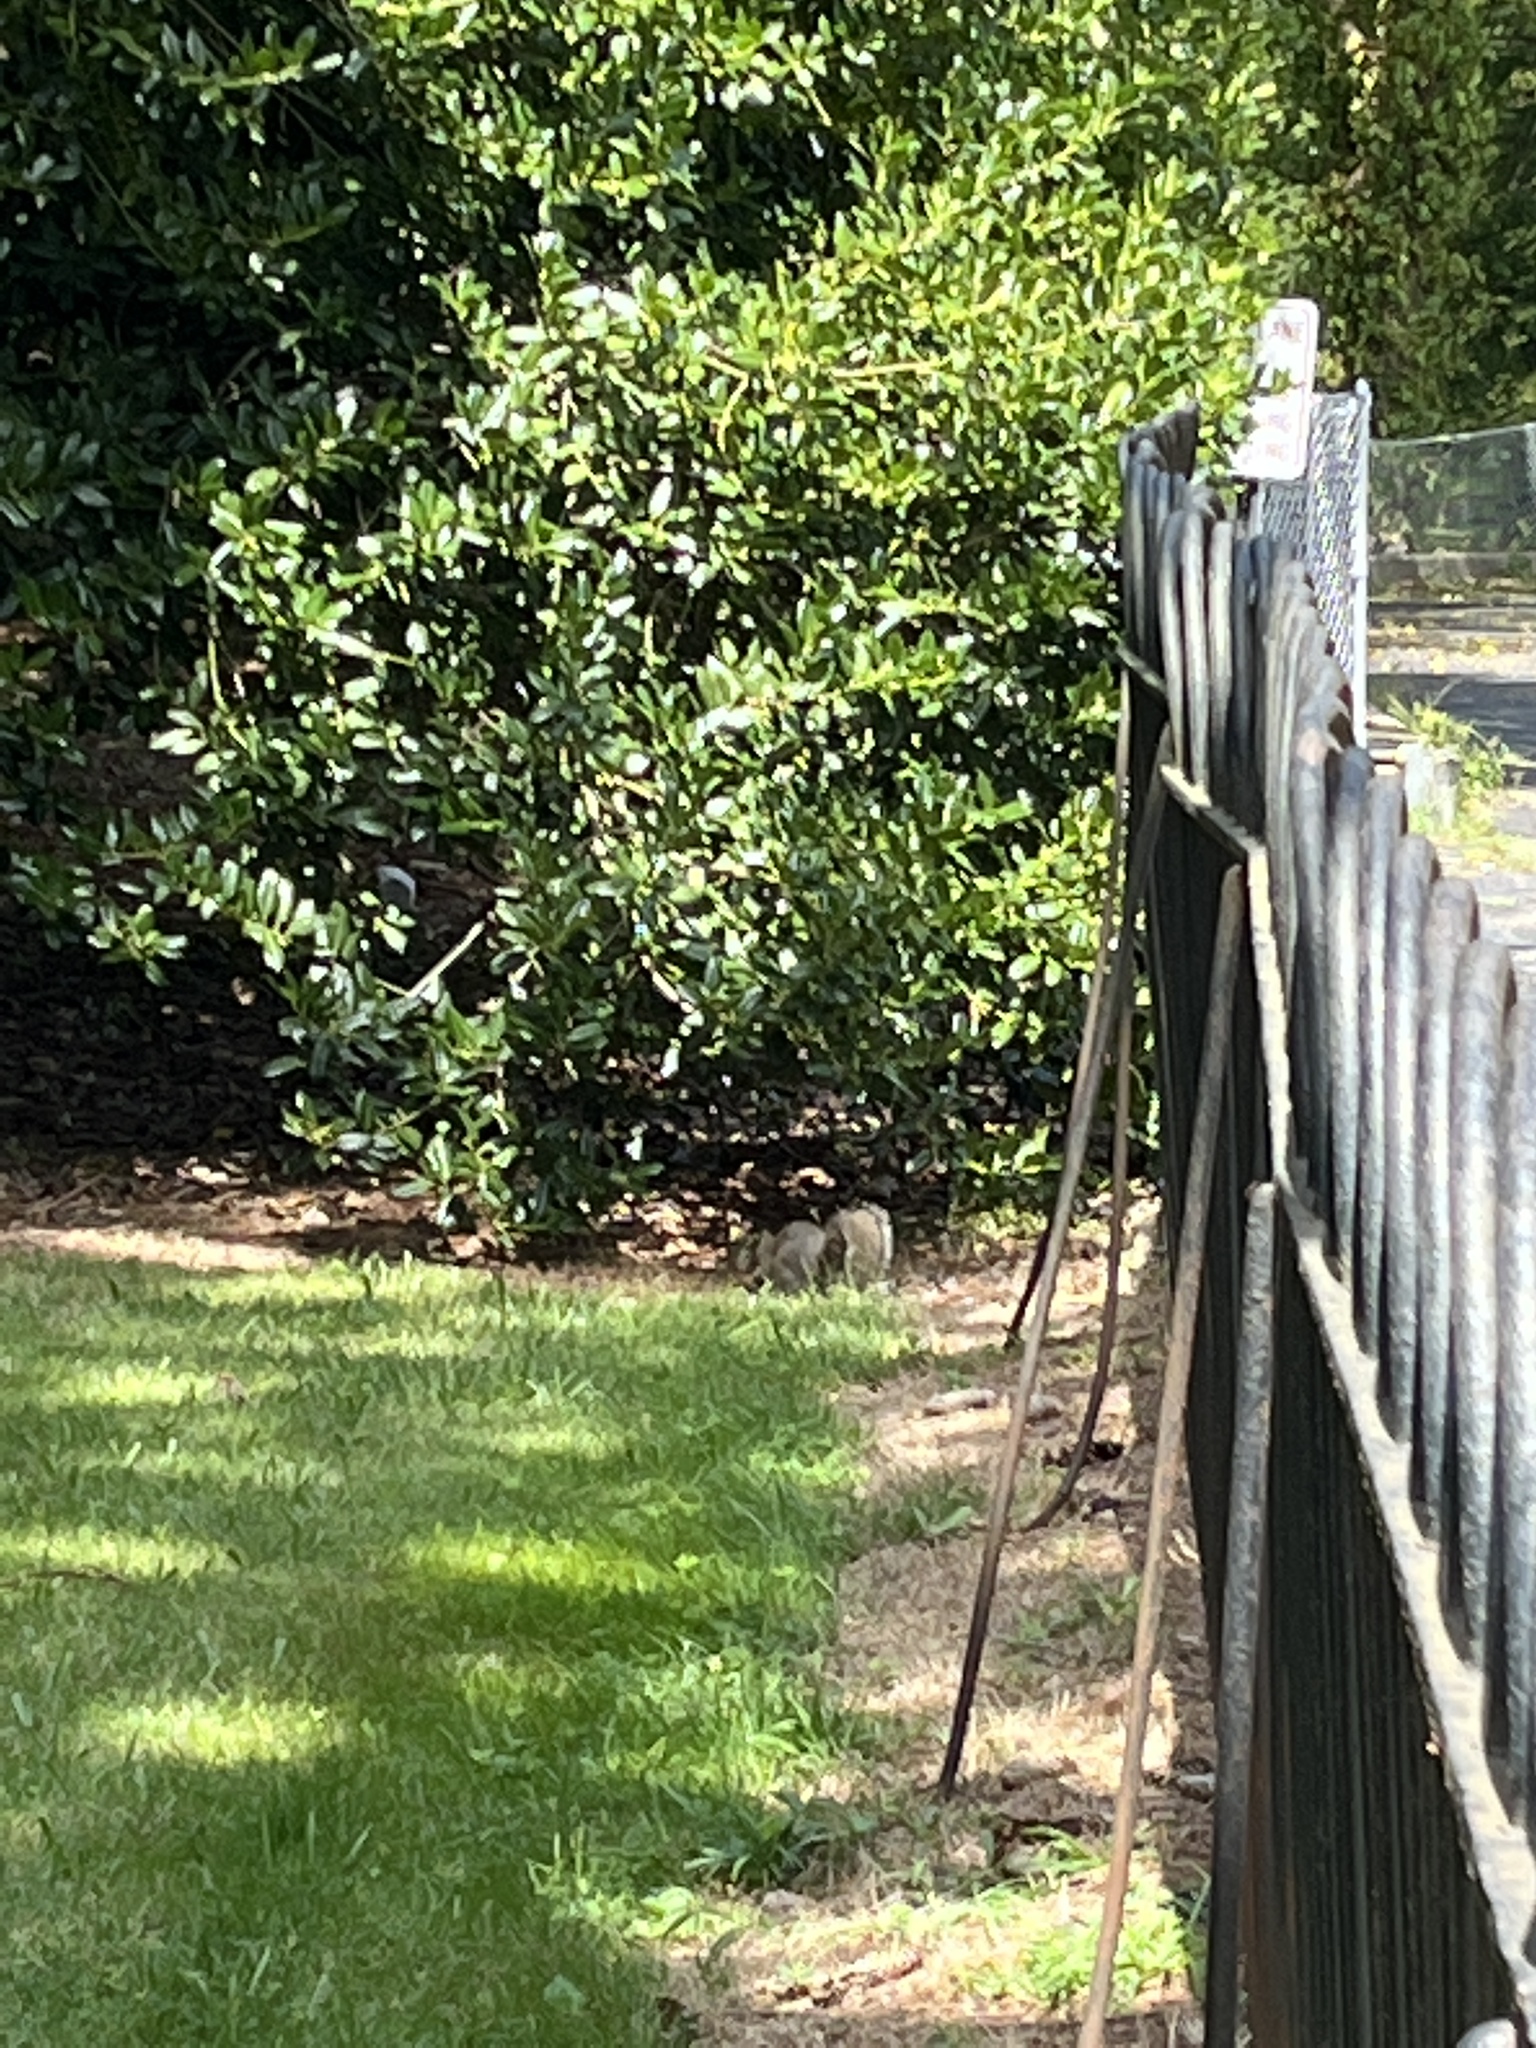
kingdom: Animalia
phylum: Chordata
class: Mammalia
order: Rodentia
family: Sciuridae
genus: Sciurus
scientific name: Sciurus carolinensis
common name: Eastern gray squirrel
